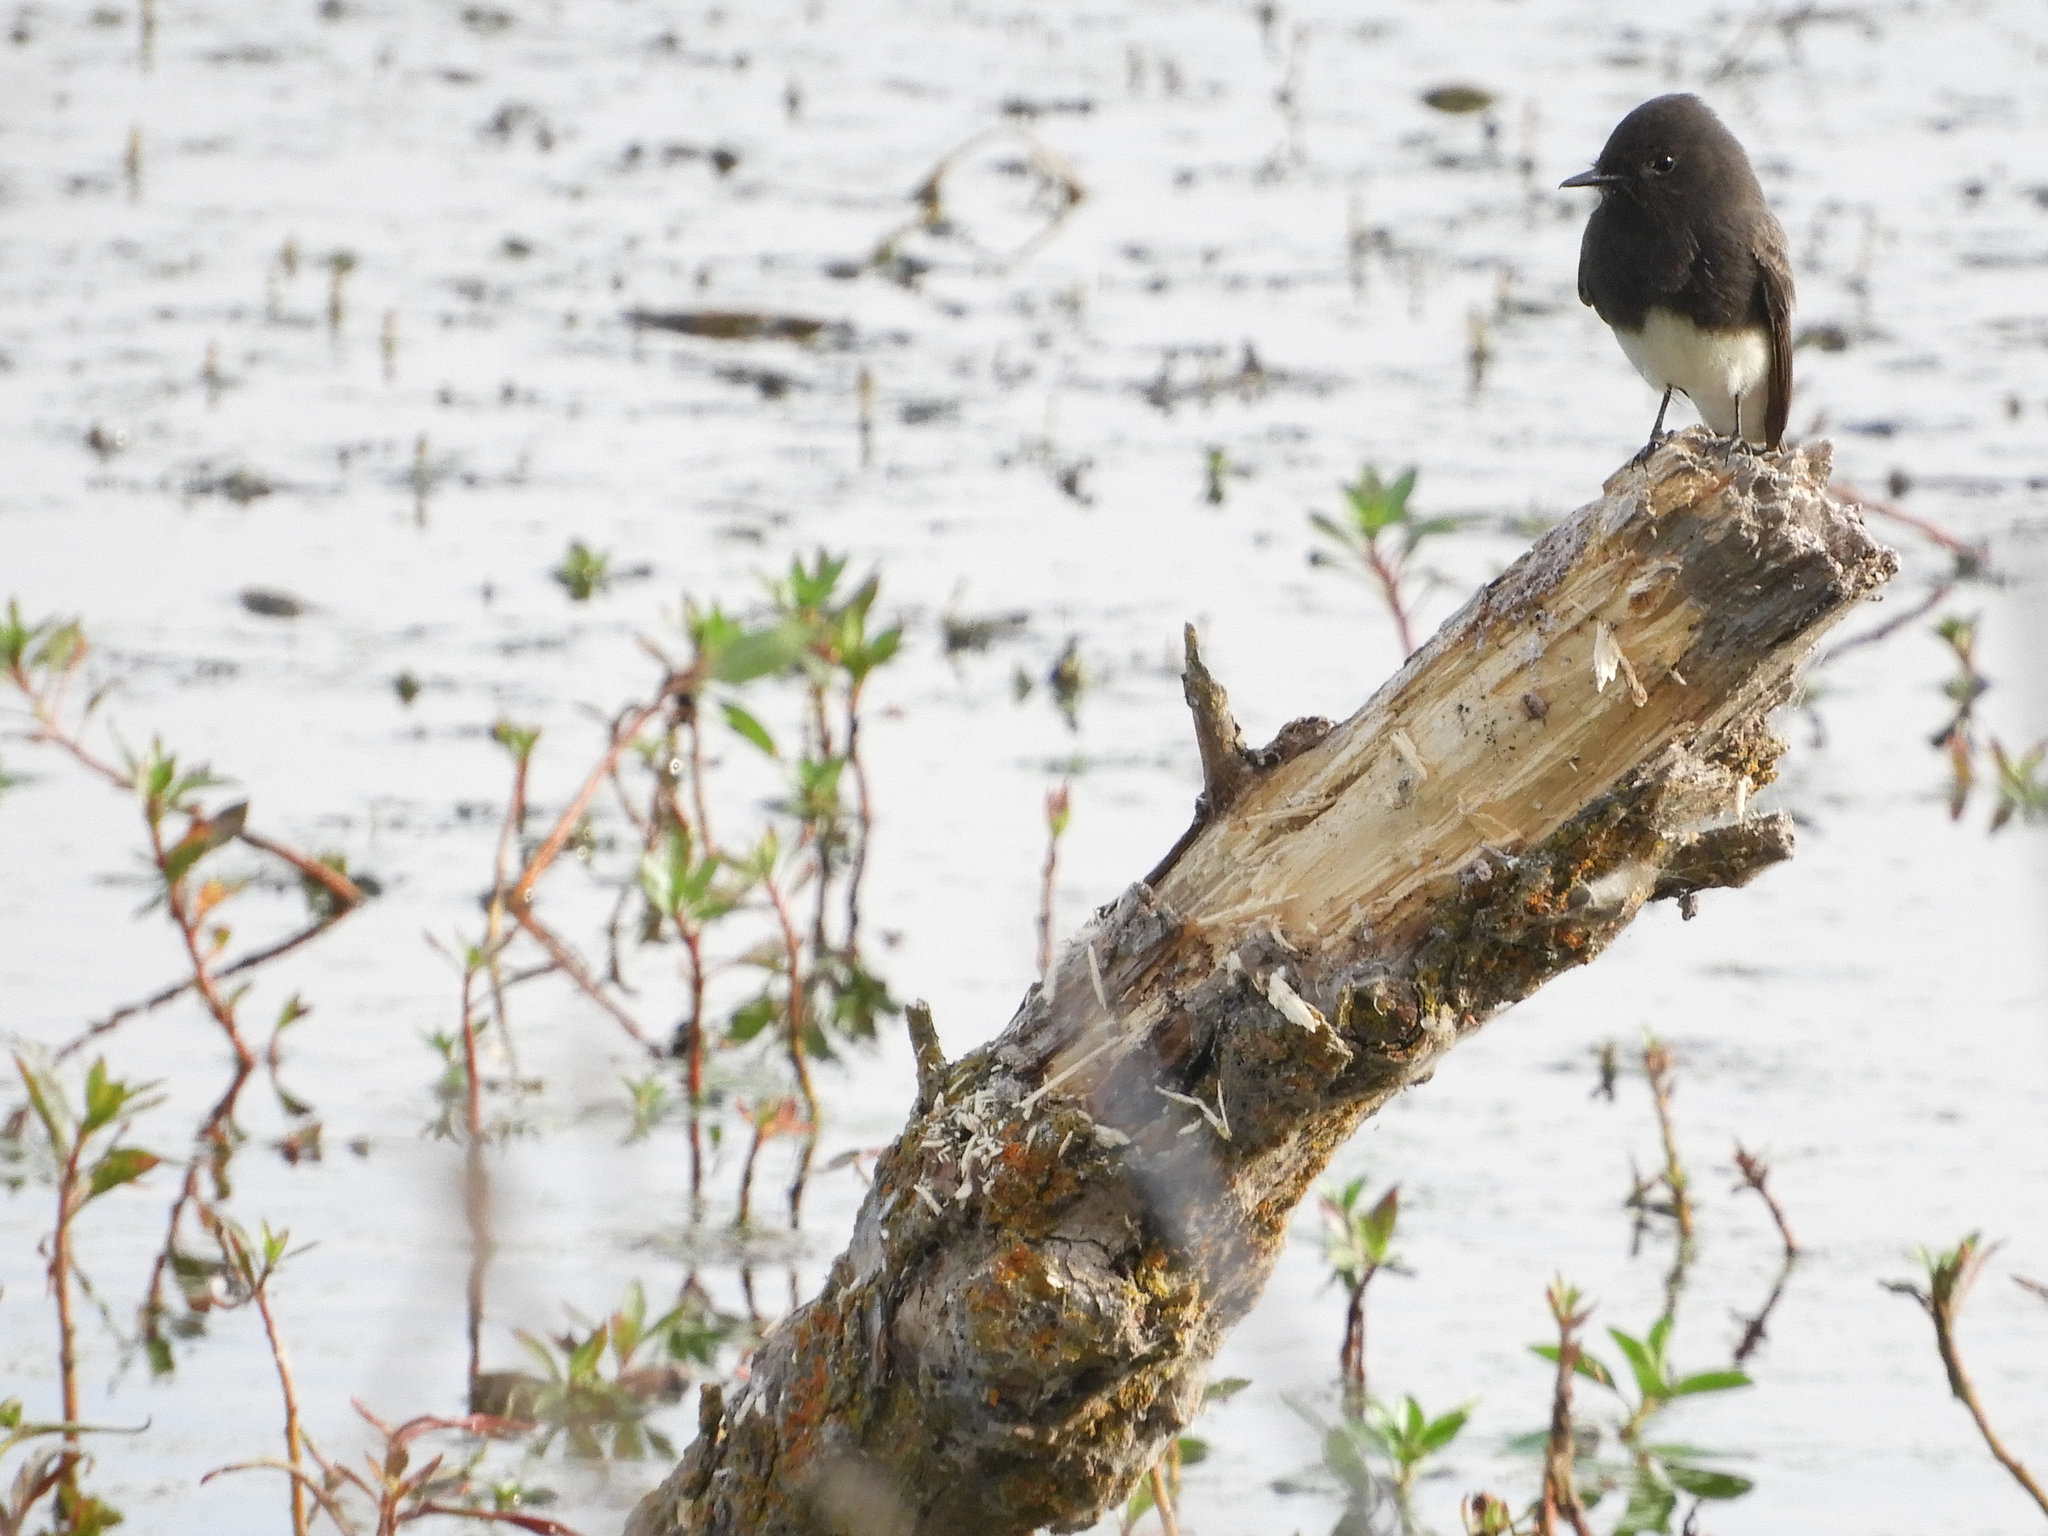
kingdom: Animalia
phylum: Chordata
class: Aves
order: Passeriformes
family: Tyrannidae
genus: Sayornis
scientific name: Sayornis nigricans
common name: Black phoebe
